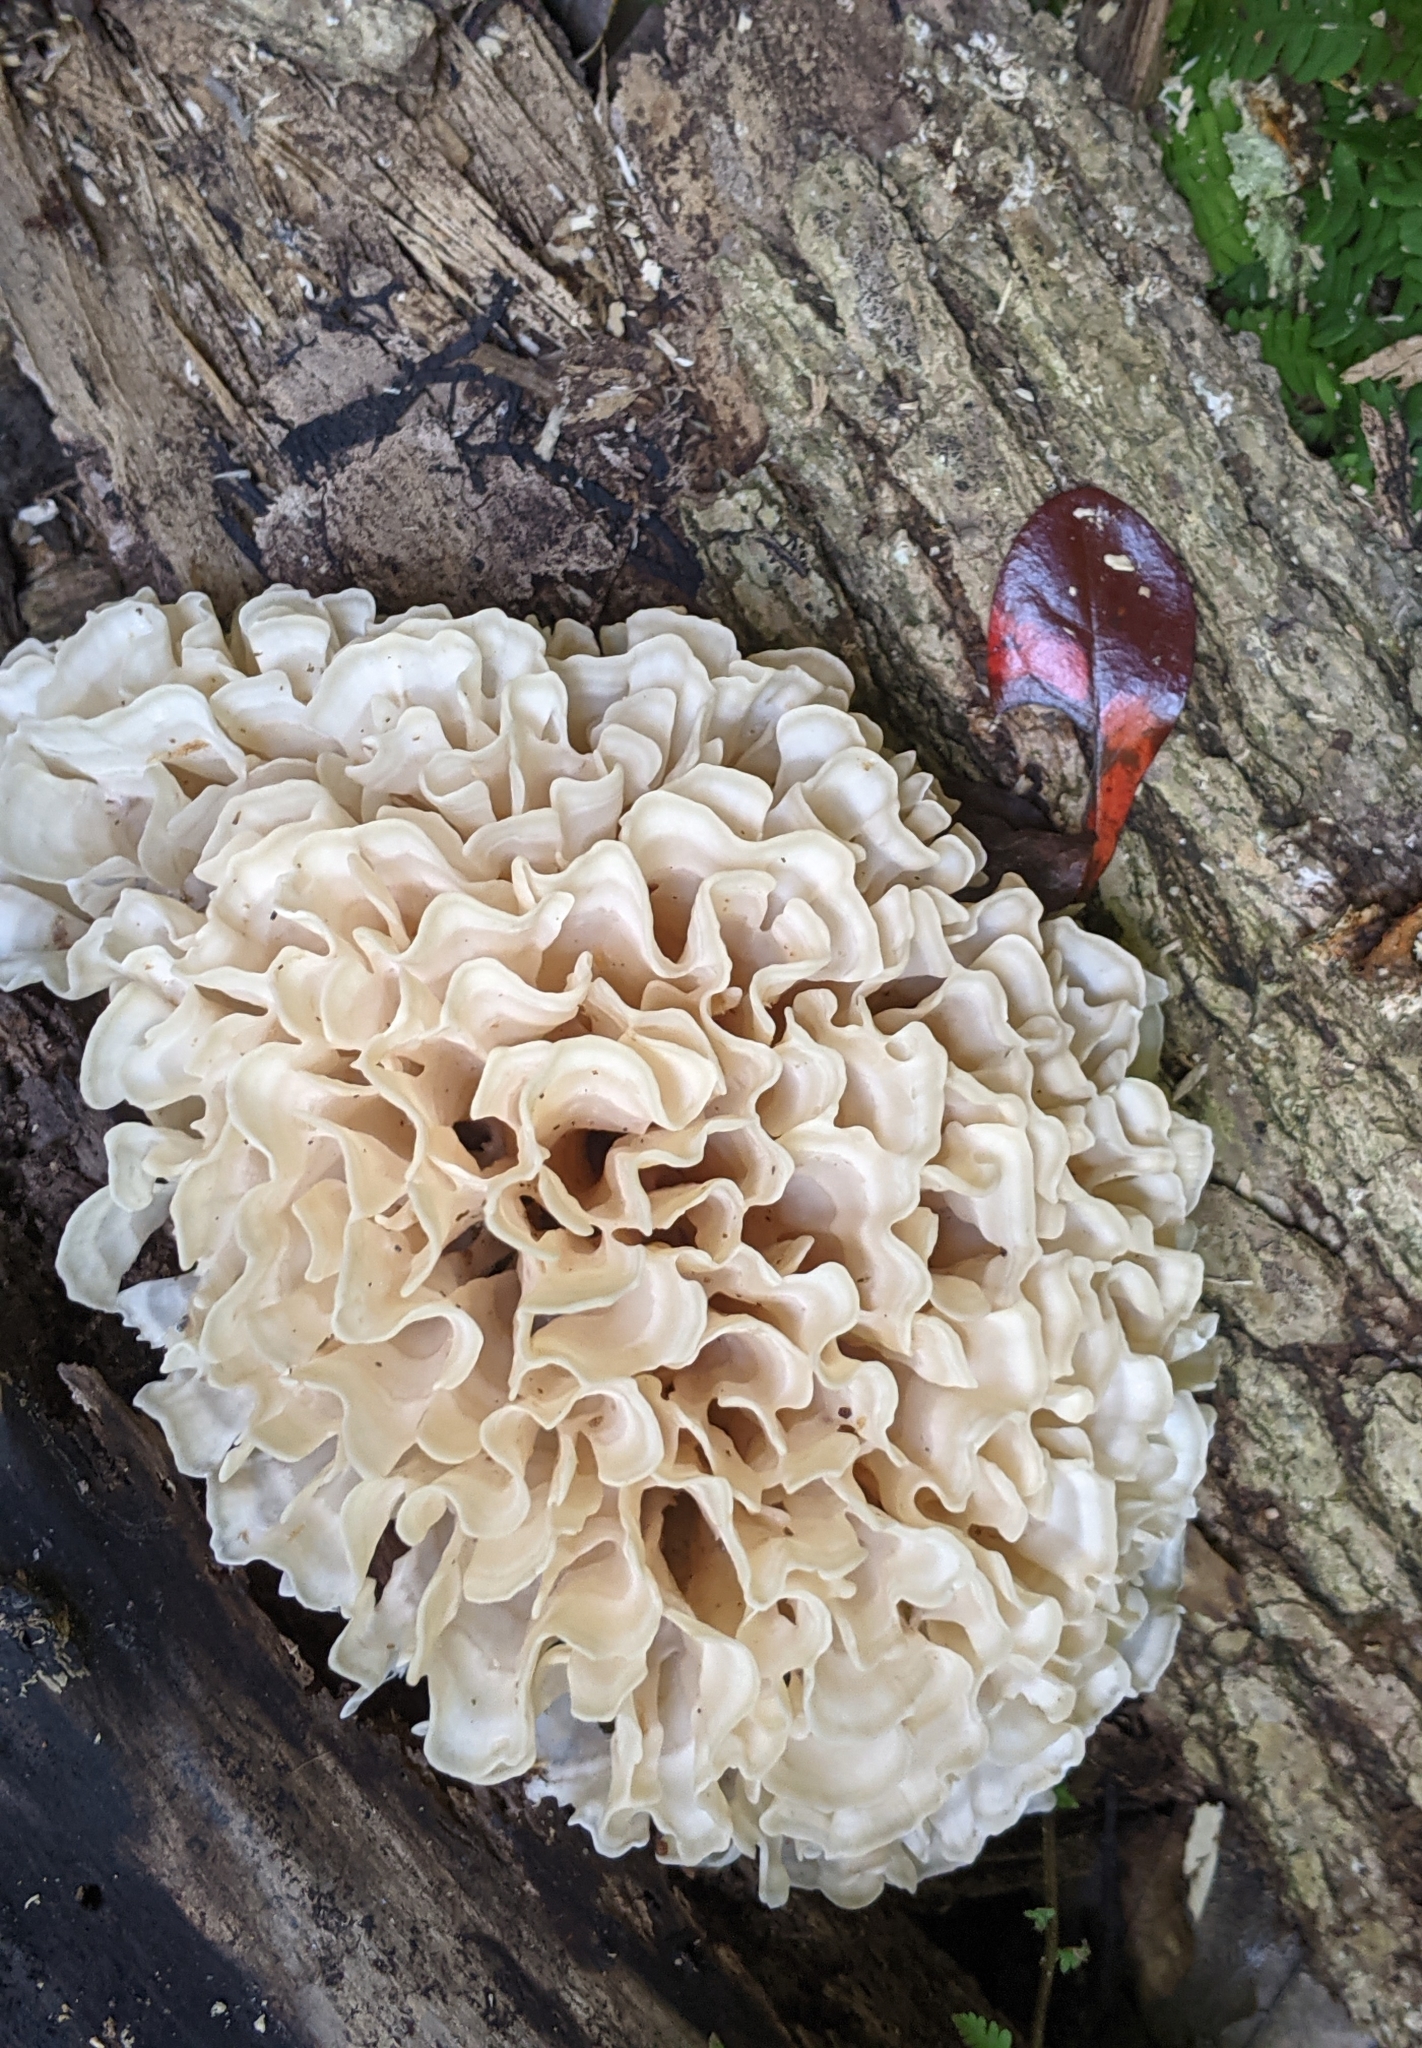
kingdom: Fungi
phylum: Basidiomycota
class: Agaricomycetes
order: Polyporales
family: Sparassidaceae
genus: Sparassis
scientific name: Sparassis spathulata
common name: Eastern cauliflower mushroom
